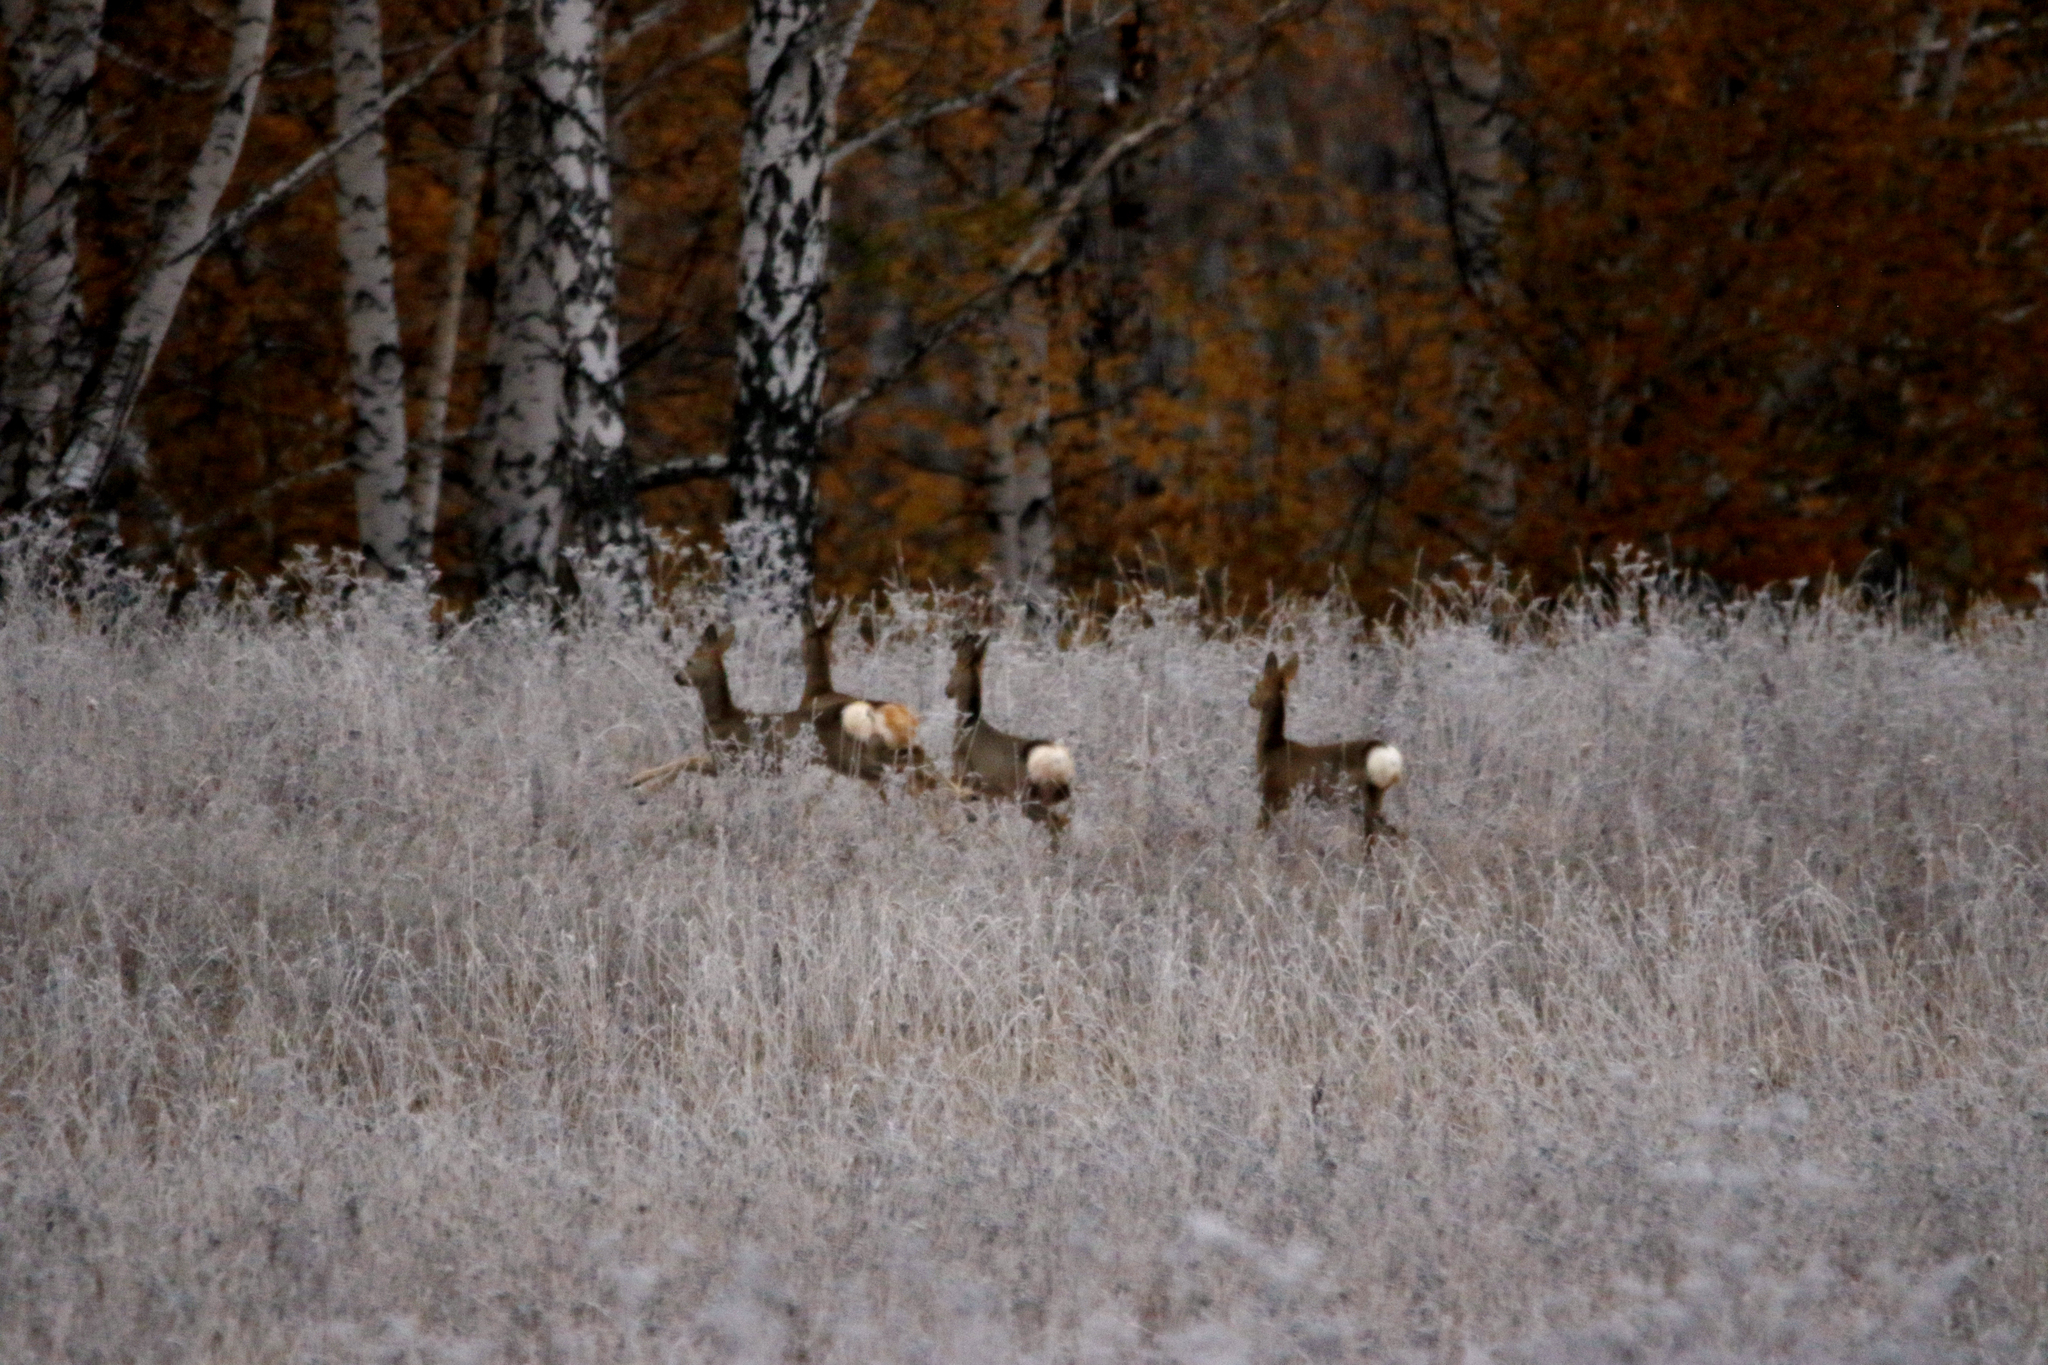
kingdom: Animalia
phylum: Chordata
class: Mammalia
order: Artiodactyla
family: Cervidae
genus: Capreolus
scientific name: Capreolus pygargus
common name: Siberian roe
